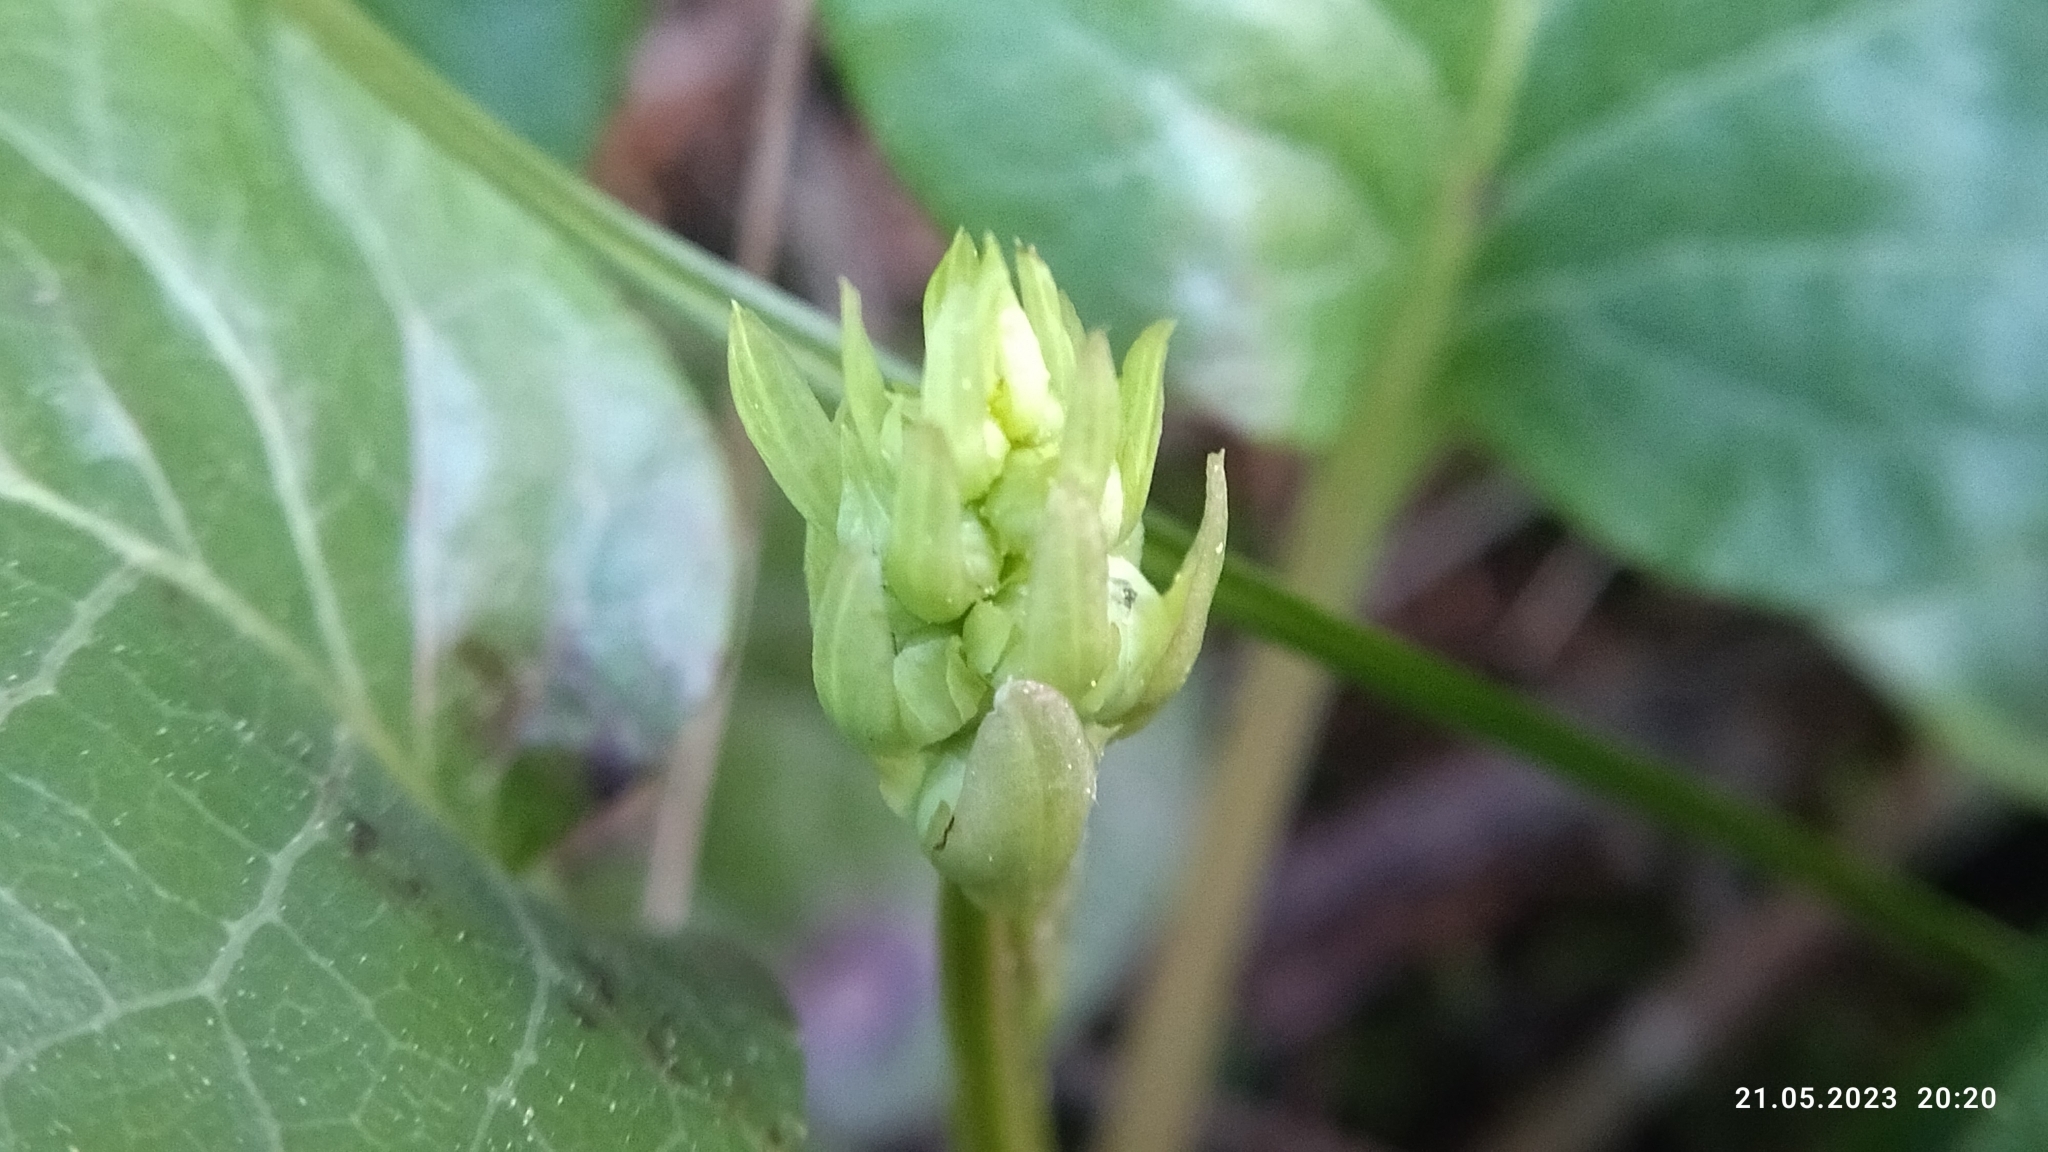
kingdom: Plantae
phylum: Tracheophyta
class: Magnoliopsida
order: Ericales
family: Ericaceae
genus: Pyrola
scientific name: Pyrola rotundifolia
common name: Round-leaved wintergreen
